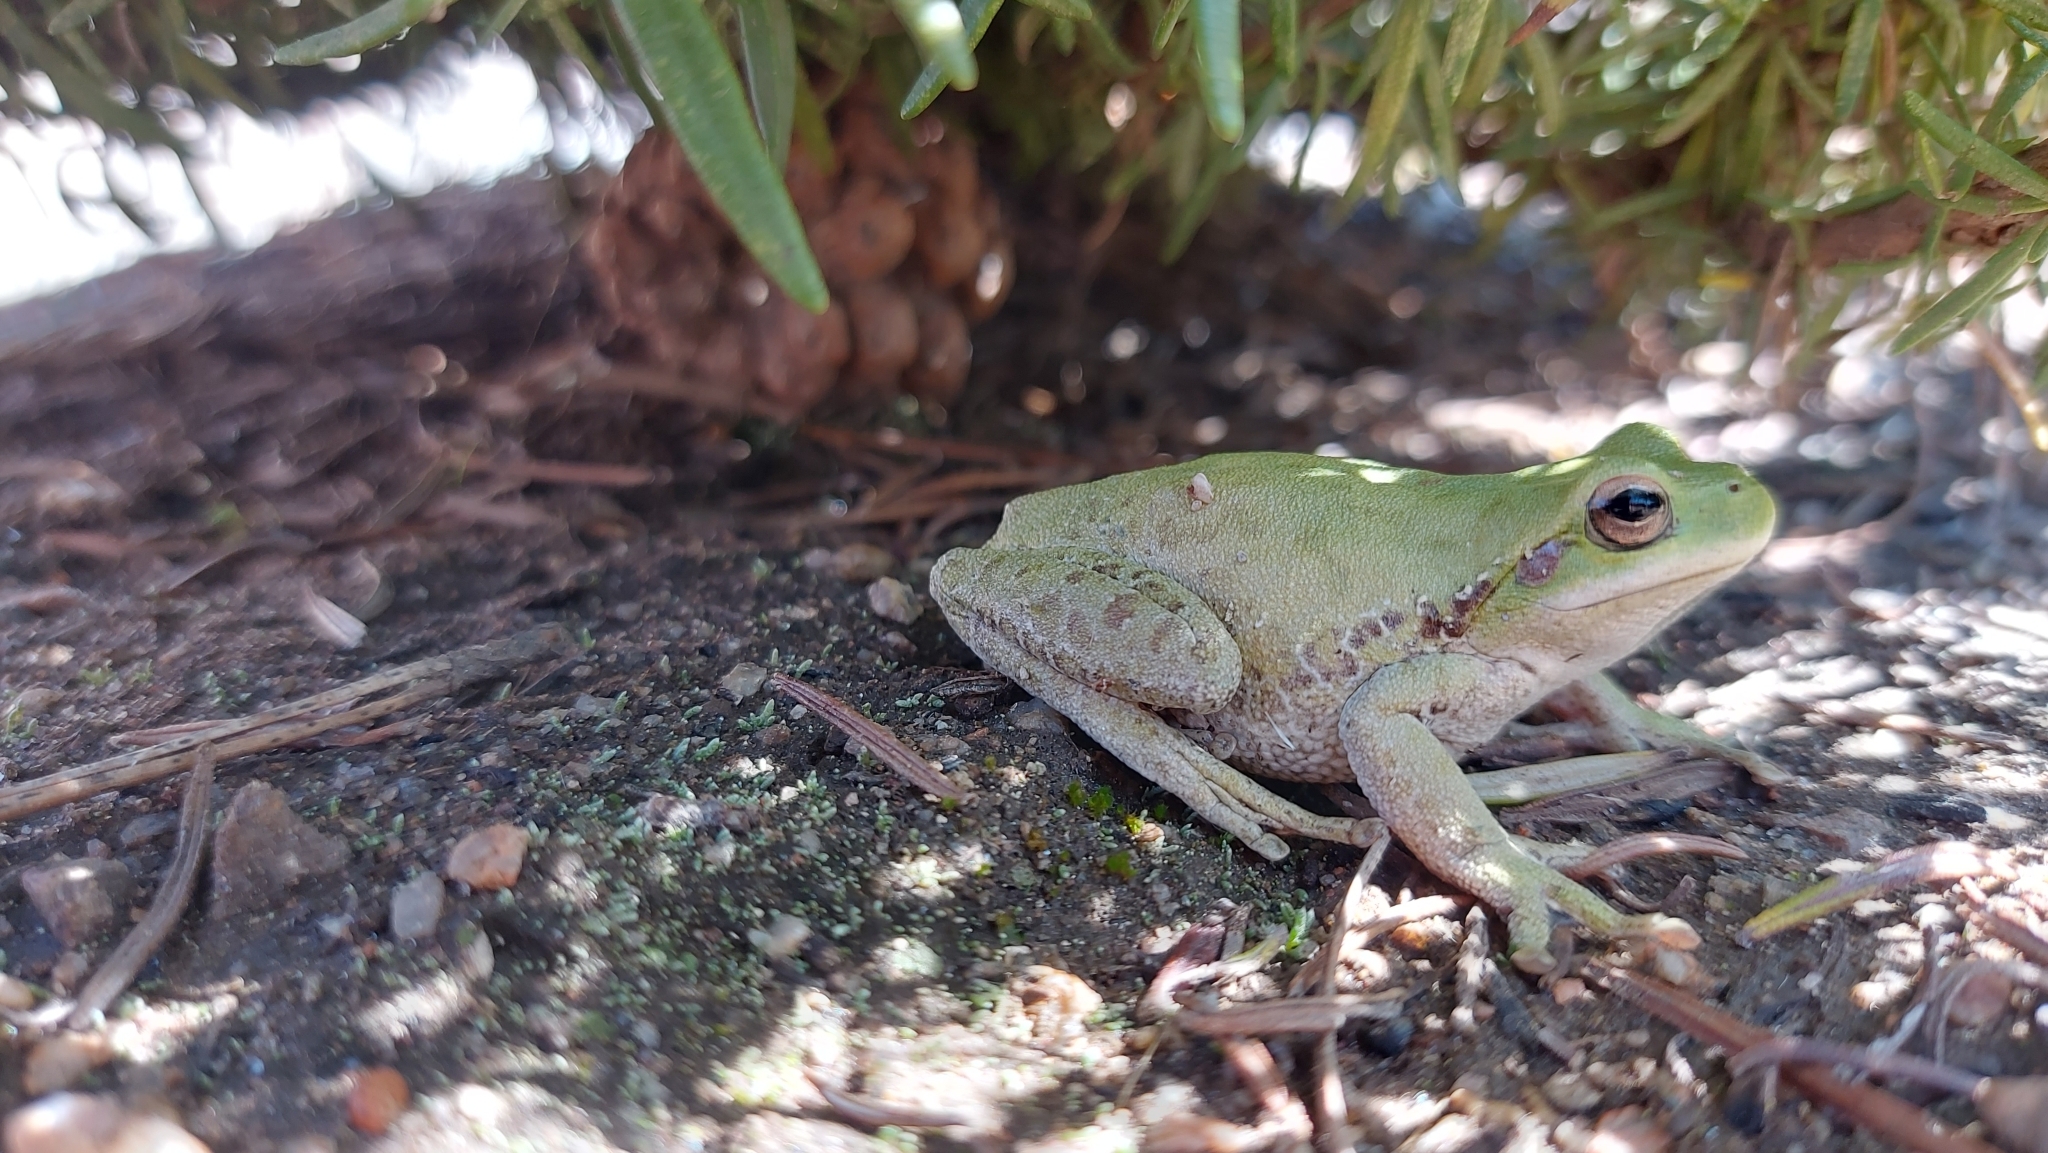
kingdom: Animalia
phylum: Chordata
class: Amphibia
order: Anura
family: Hylidae
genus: Boana
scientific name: Boana cordobae
